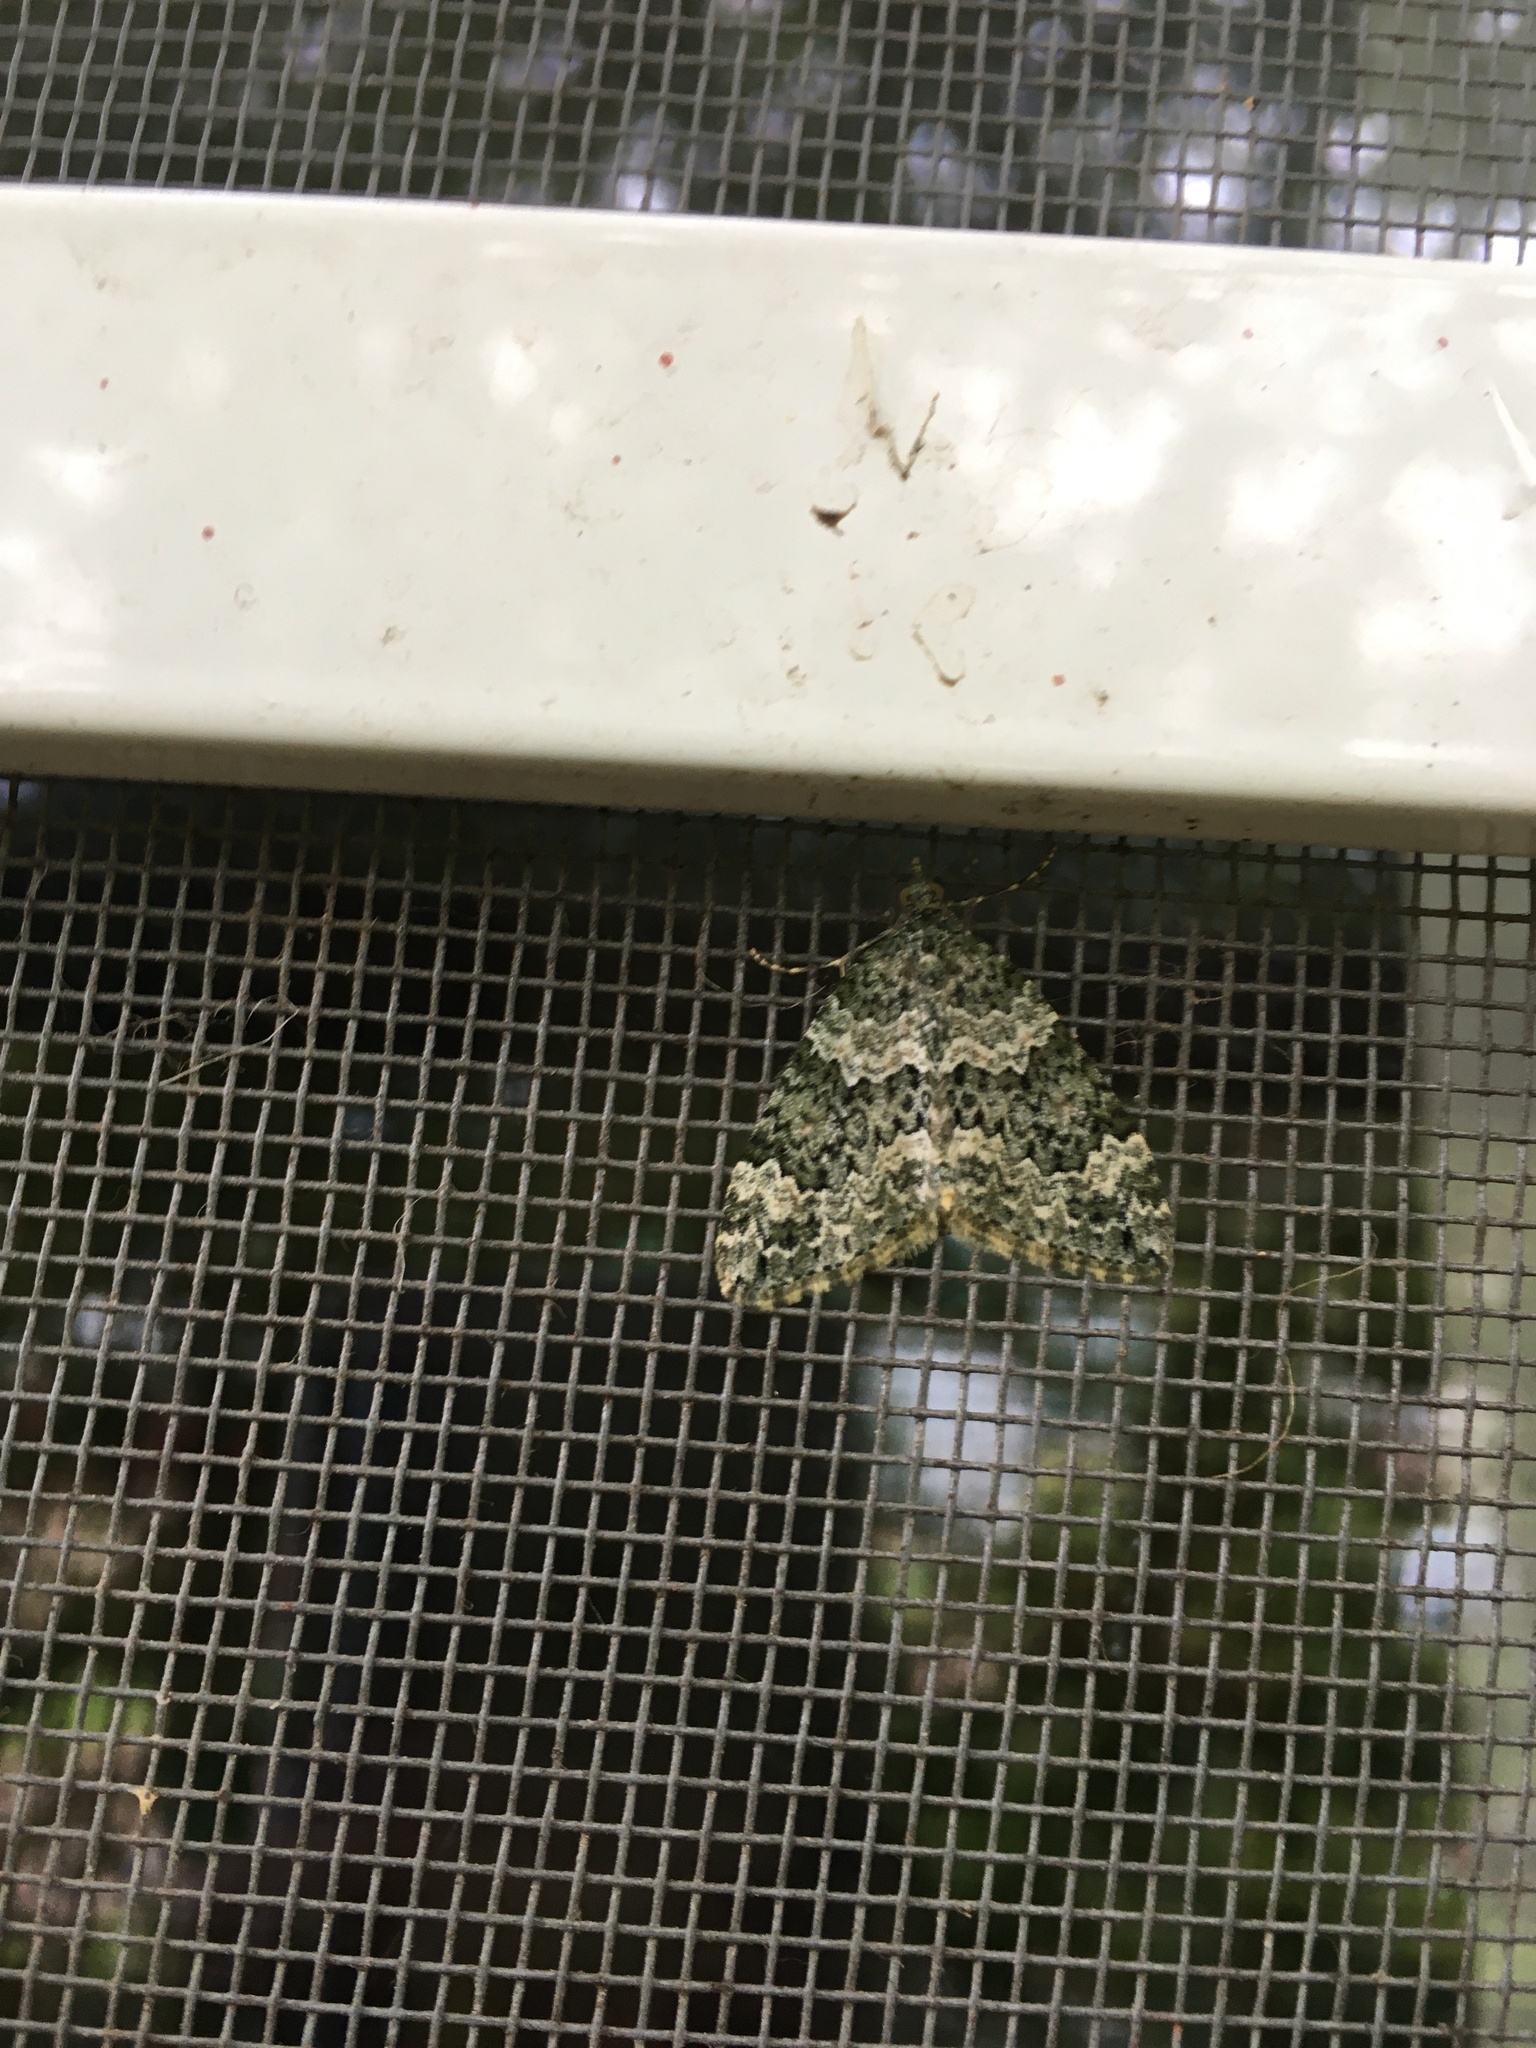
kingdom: Animalia
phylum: Arthropoda
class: Insecta
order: Lepidoptera
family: Geometridae
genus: Chloroclysta
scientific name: Chloroclysta miata
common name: Autumn green carpet
